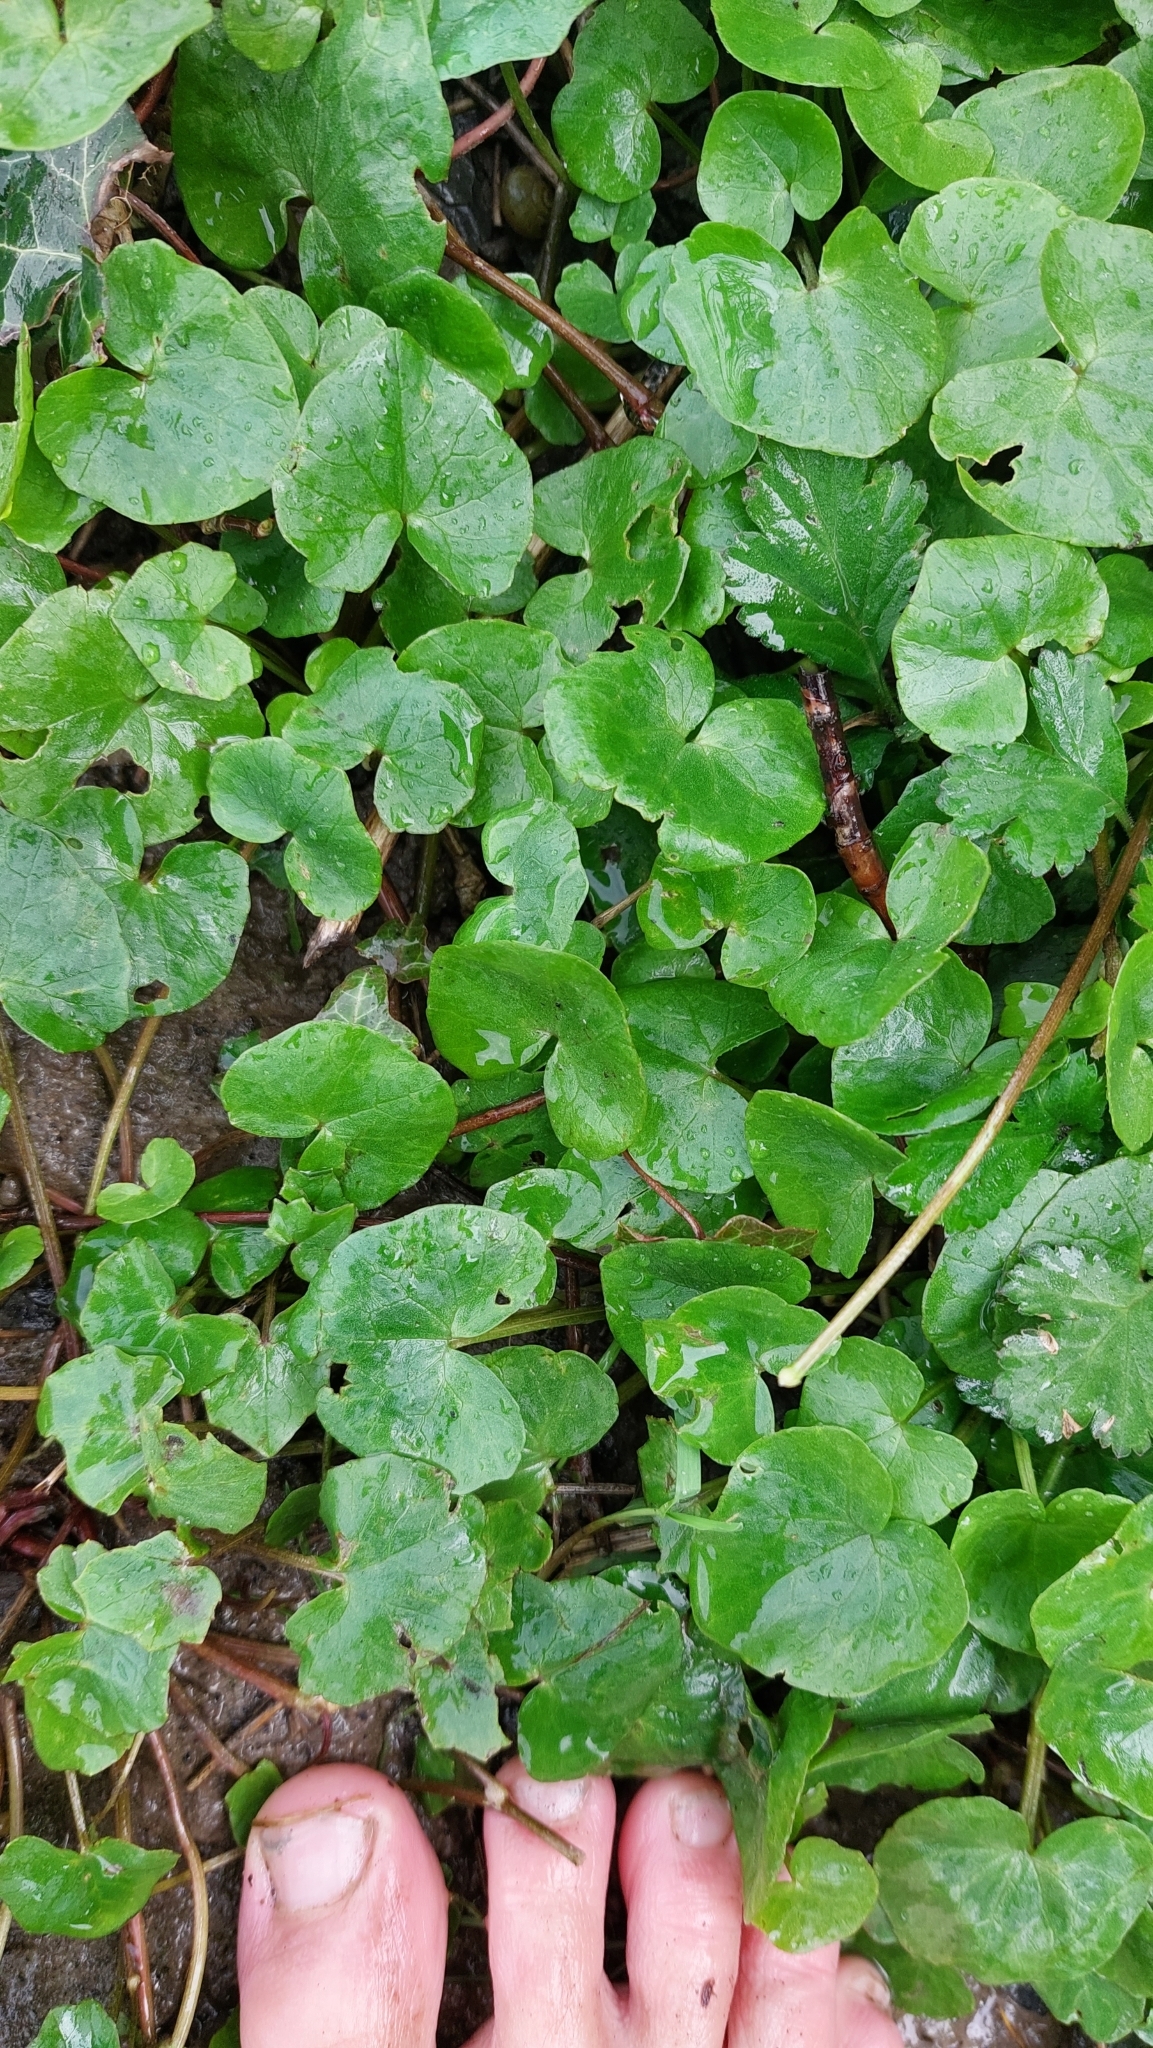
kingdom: Plantae
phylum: Tracheophyta
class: Magnoliopsida
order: Ranunculales
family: Ranunculaceae
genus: Ficaria
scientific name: Ficaria verna
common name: Lesser celandine
